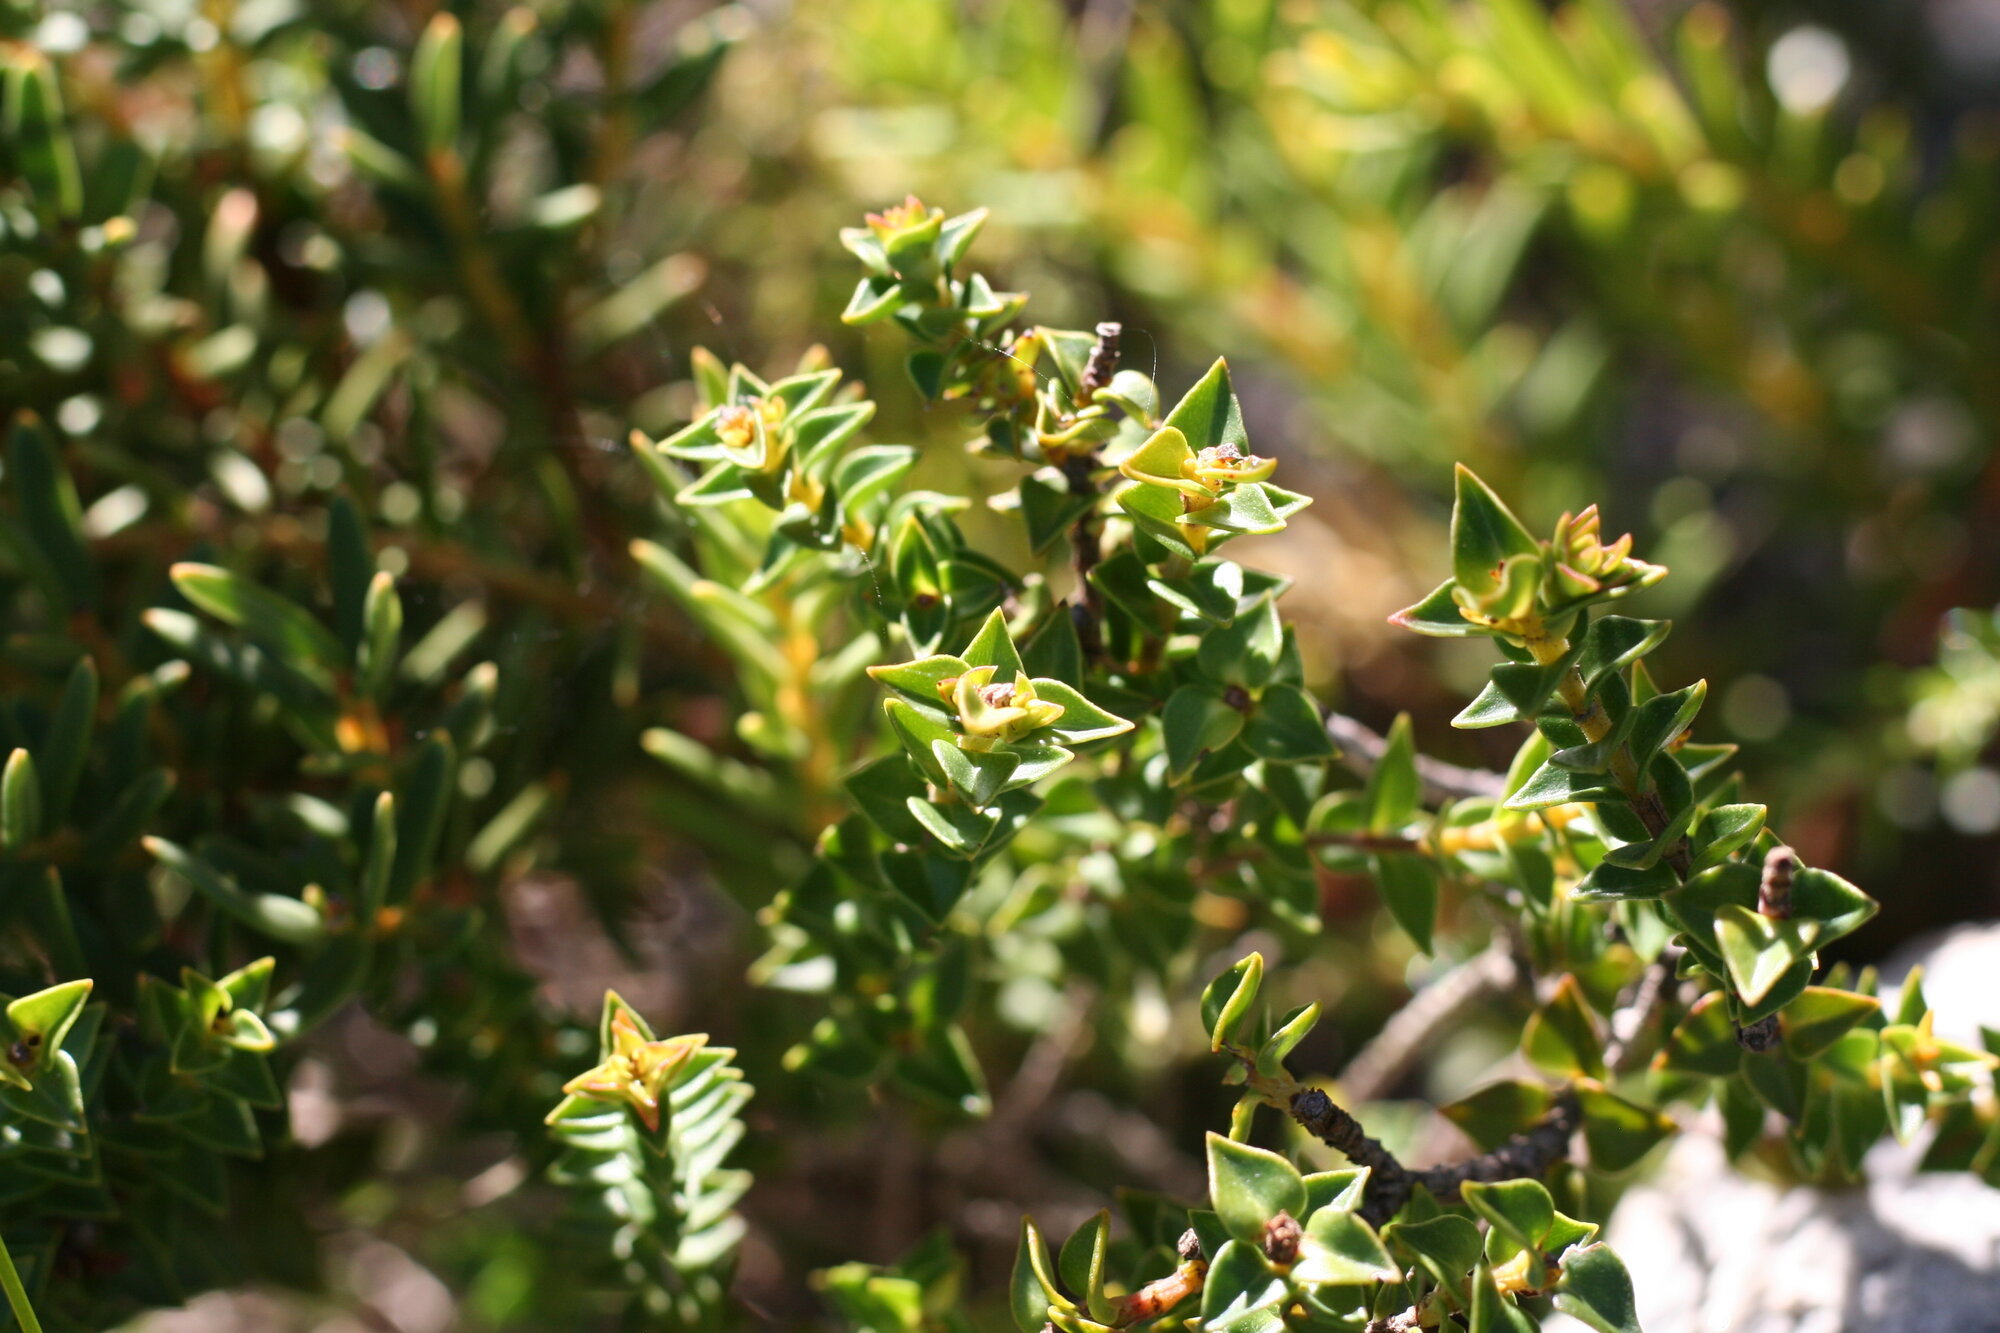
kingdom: Plantae
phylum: Tracheophyta
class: Magnoliopsida
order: Myrtales
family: Penaeaceae
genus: Penaea
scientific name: Penaea mucronata
